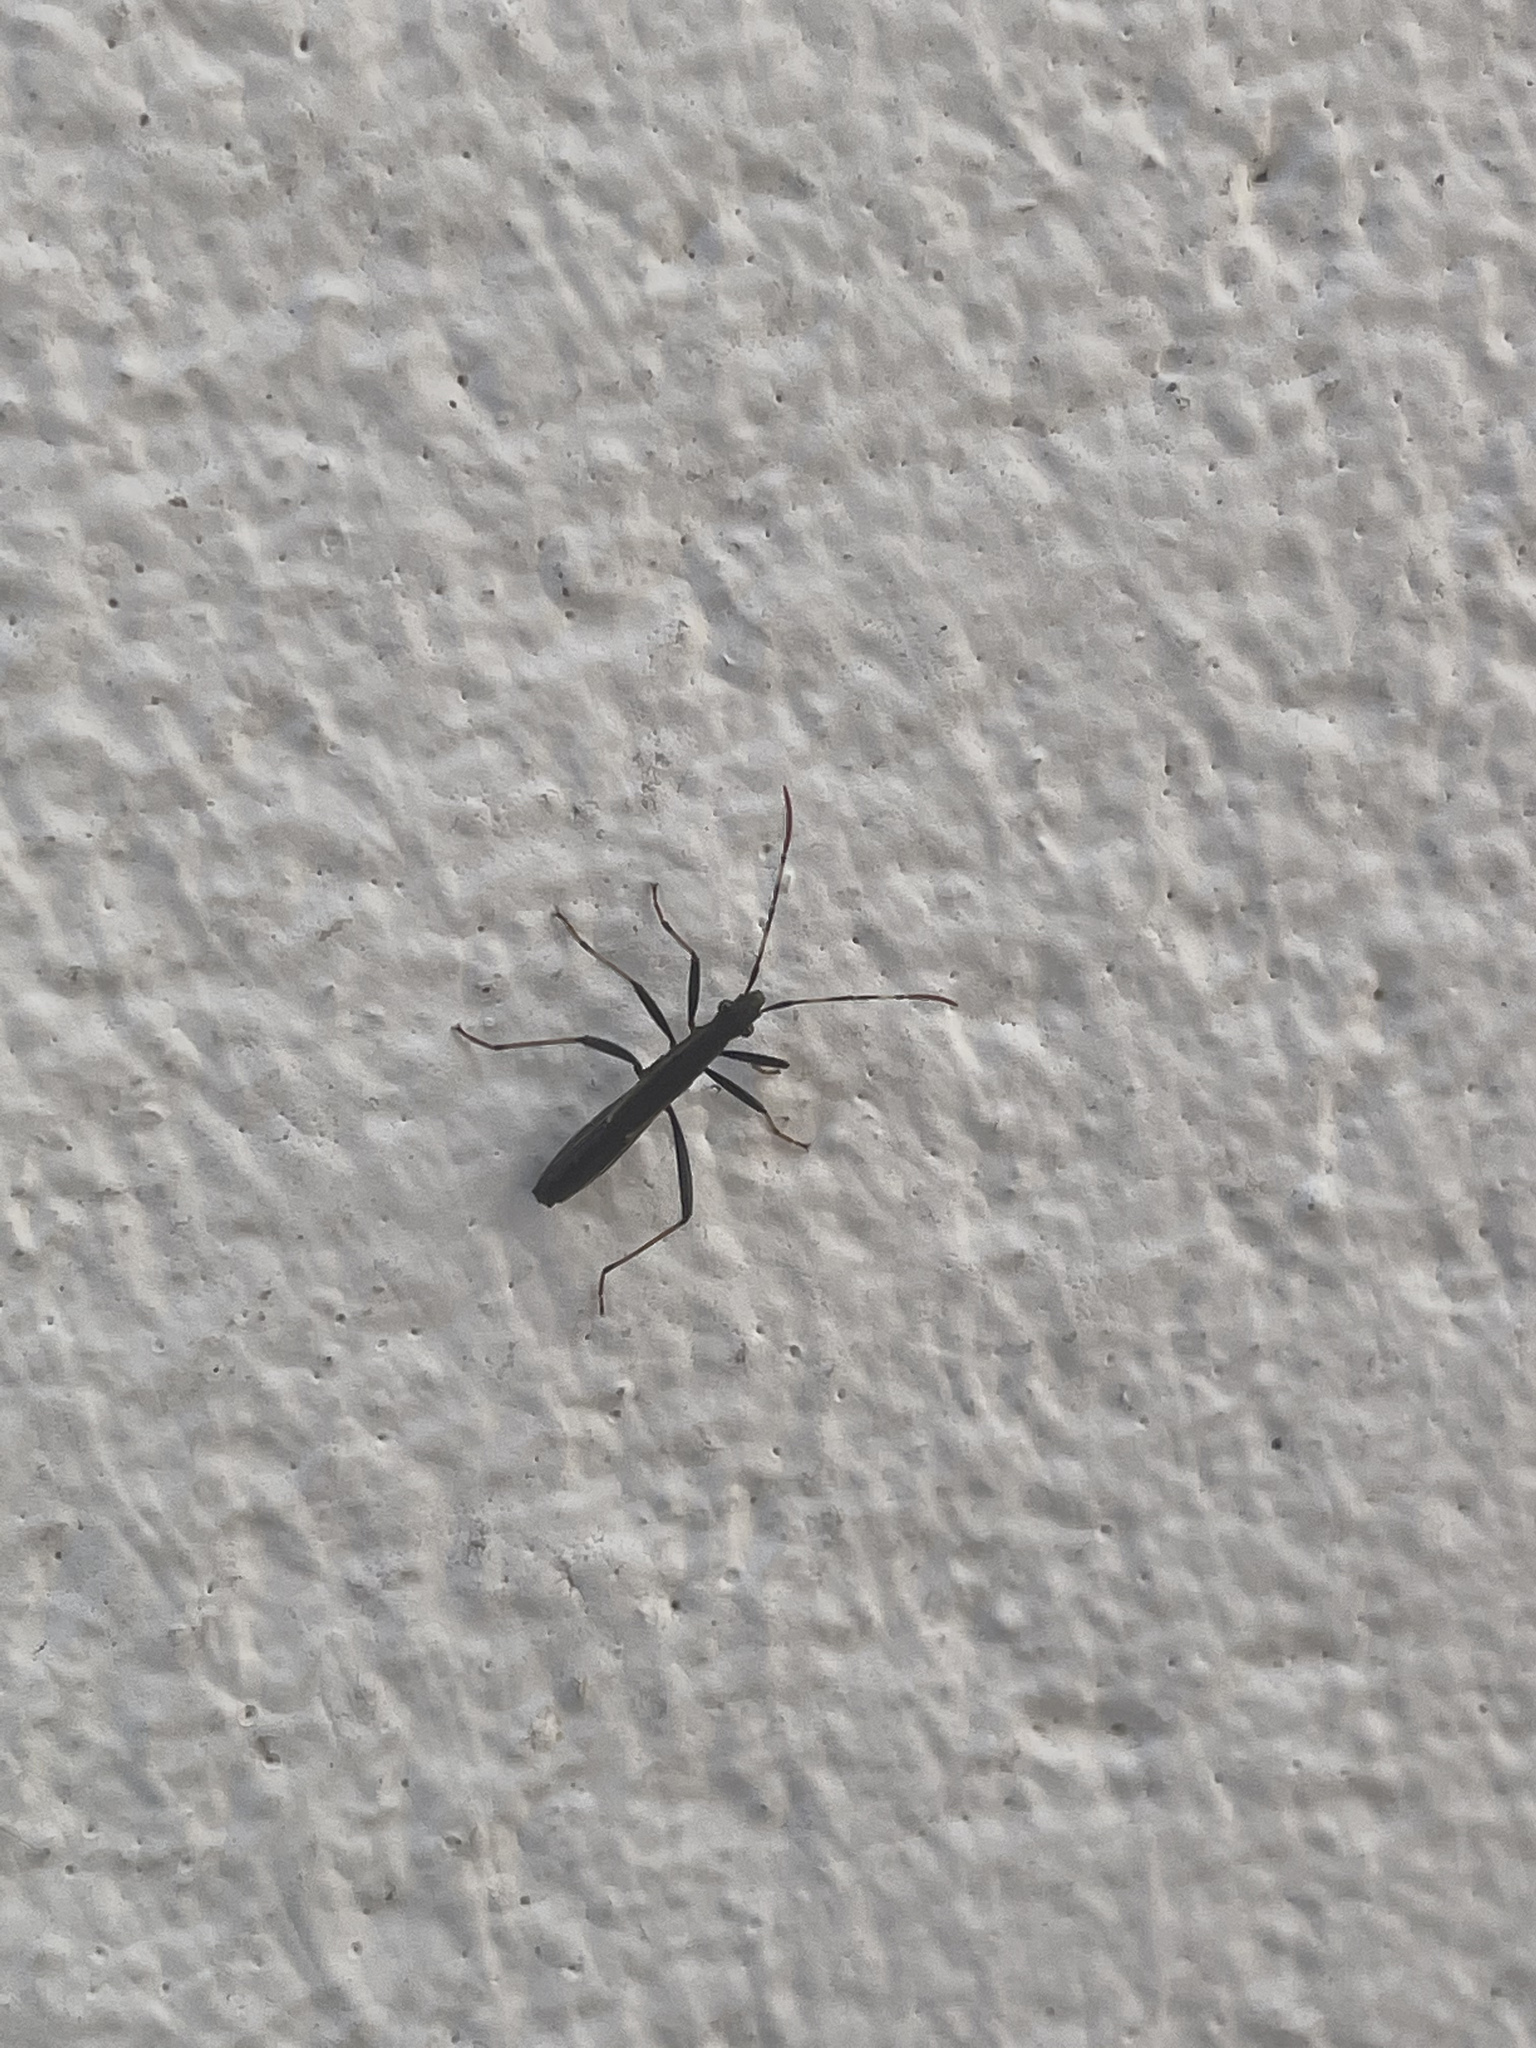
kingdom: Animalia
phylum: Arthropoda
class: Insecta
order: Hemiptera
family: Alydidae
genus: Micrelytra
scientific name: Micrelytra fossularum
